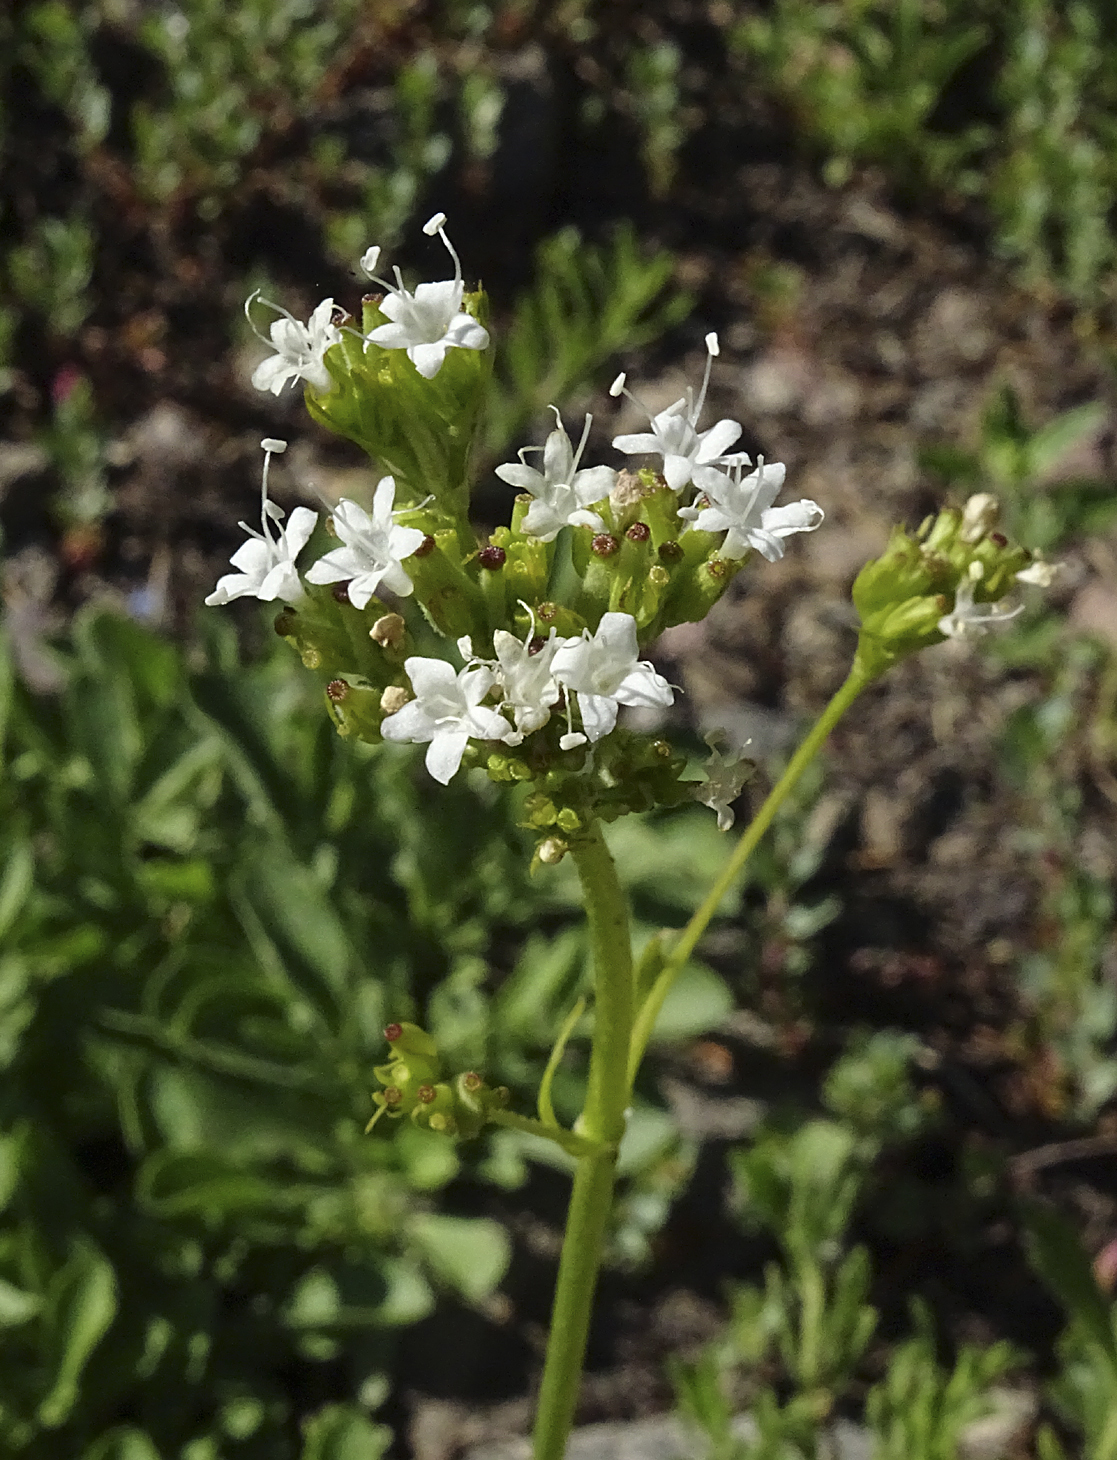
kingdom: Plantae
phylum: Tracheophyta
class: Magnoliopsida
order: Dipsacales
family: Caprifoliaceae
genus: Valeriana
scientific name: Valeriana californica
